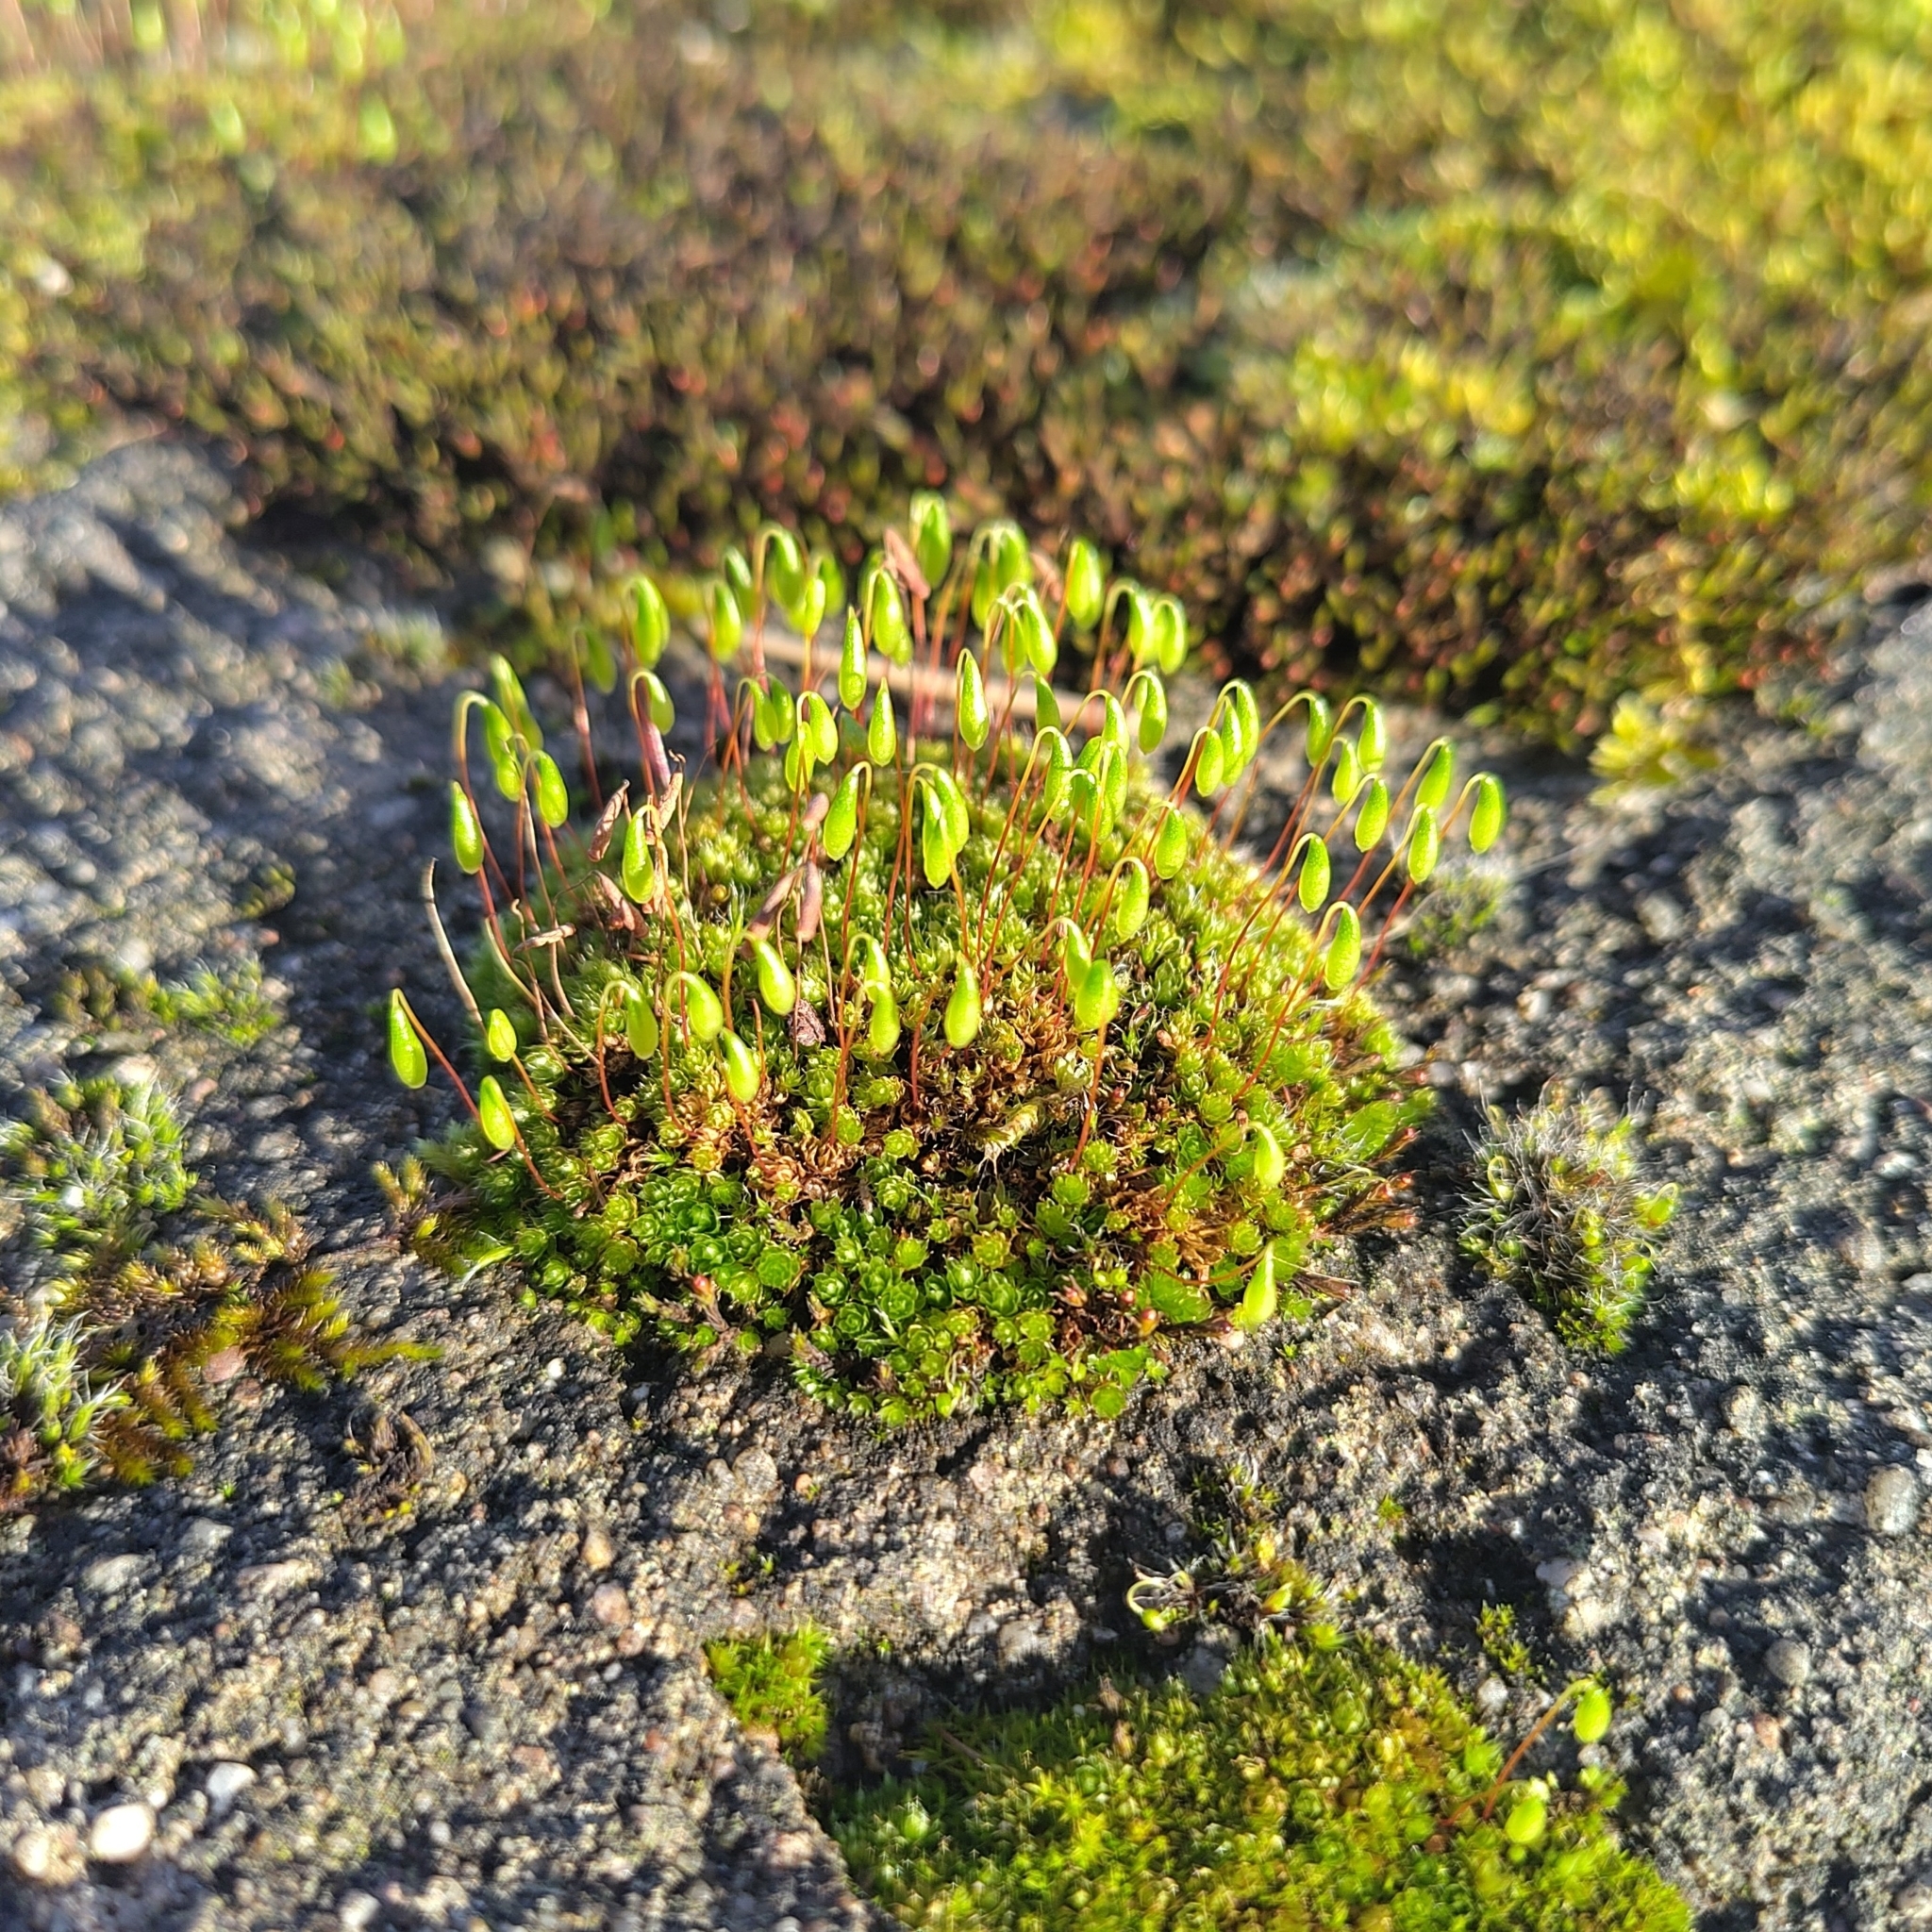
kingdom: Plantae
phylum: Bryophyta
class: Bryopsida
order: Bryales
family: Bryaceae
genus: Rosulabryum
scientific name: Rosulabryum capillare
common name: Capillary thread-moss
